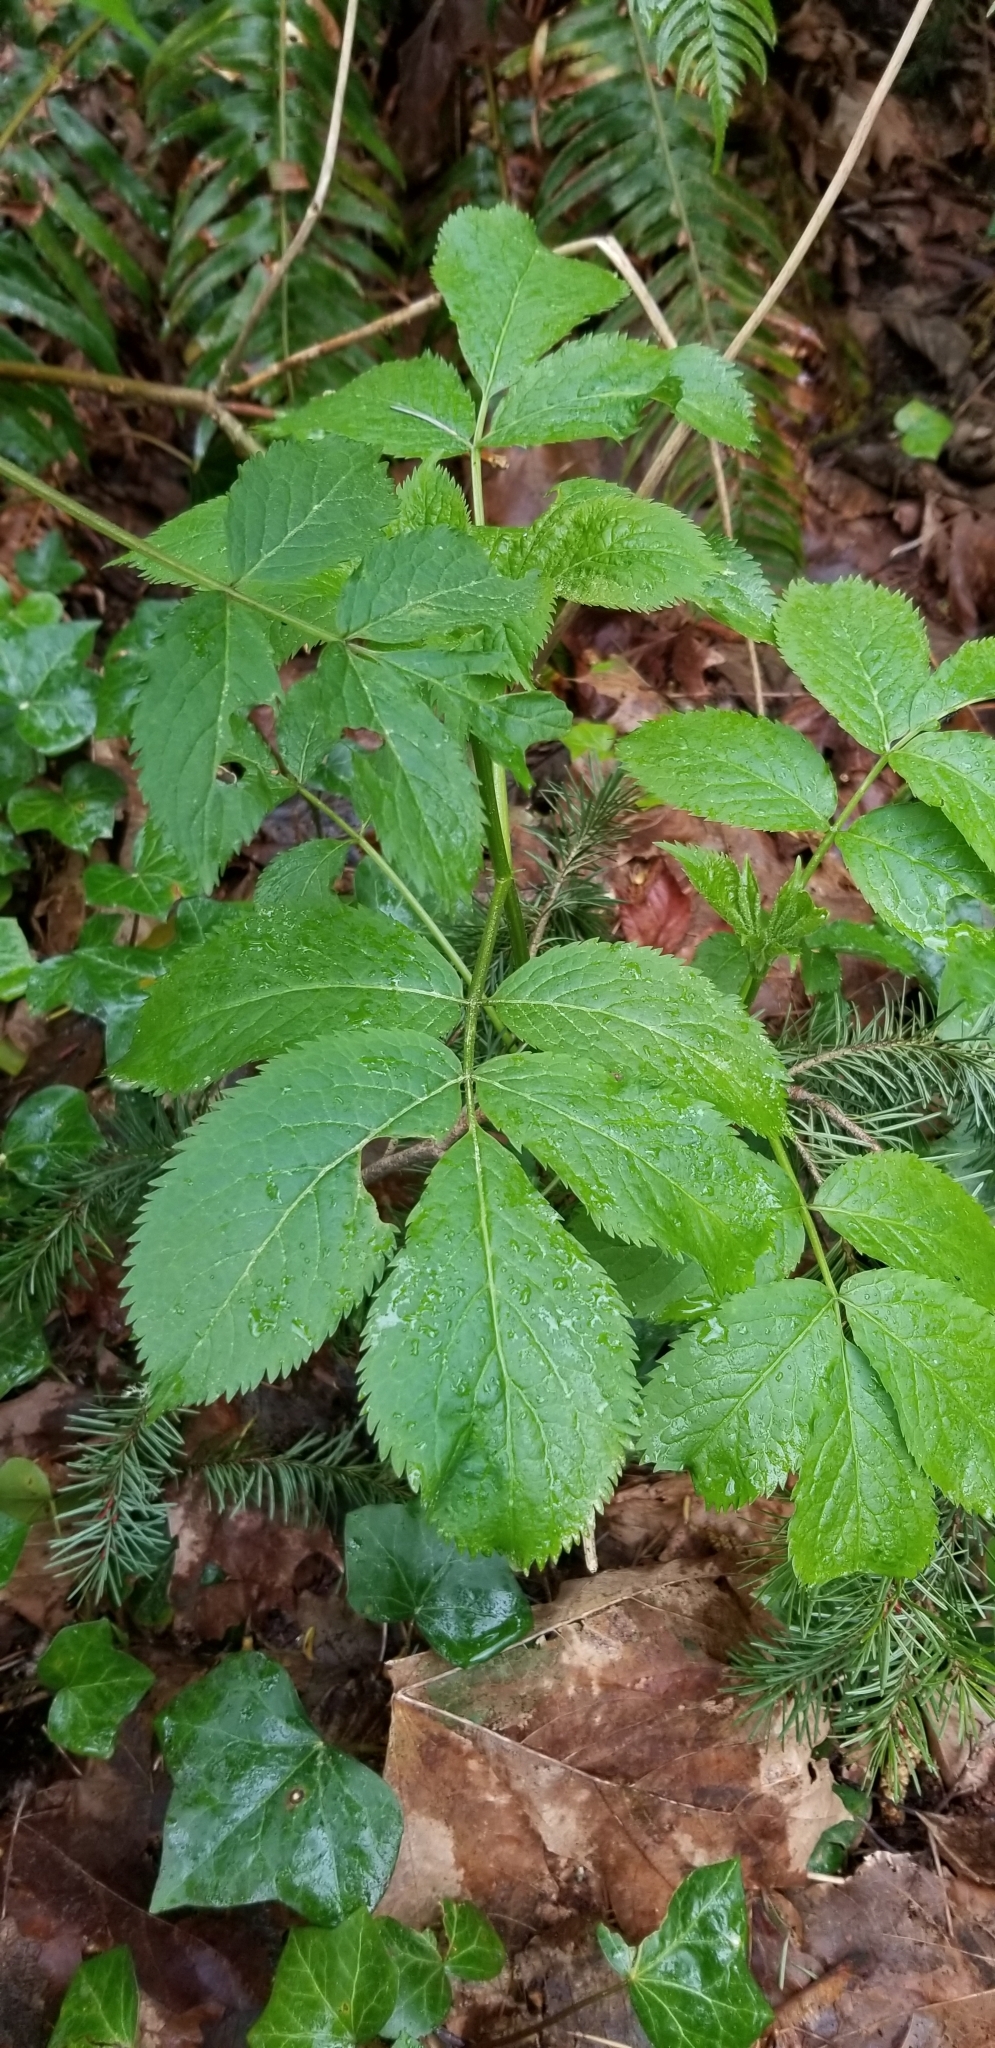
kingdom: Plantae
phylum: Tracheophyta
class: Magnoliopsida
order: Dipsacales
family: Viburnaceae
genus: Sambucus
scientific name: Sambucus racemosa
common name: Red-berried elder
